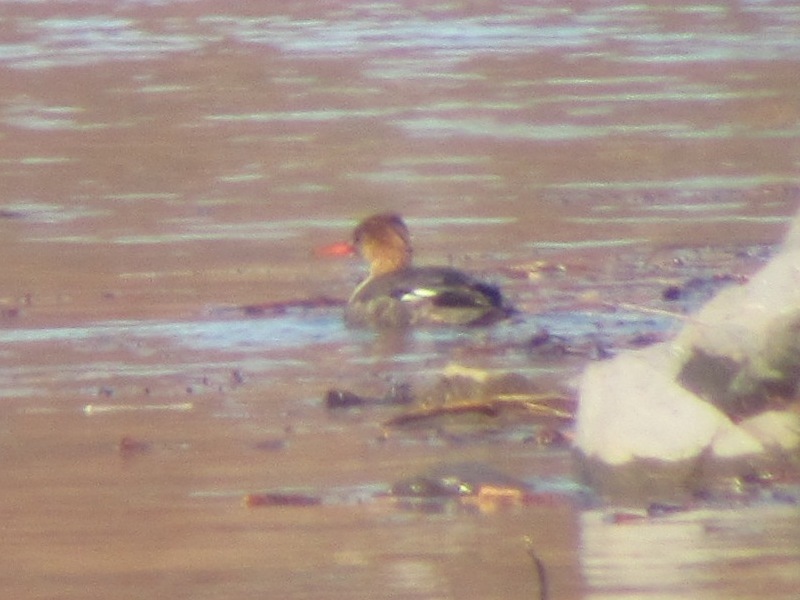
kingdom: Animalia
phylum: Chordata
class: Aves
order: Anseriformes
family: Anatidae
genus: Mergus
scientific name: Mergus serrator
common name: Red-breasted merganser
